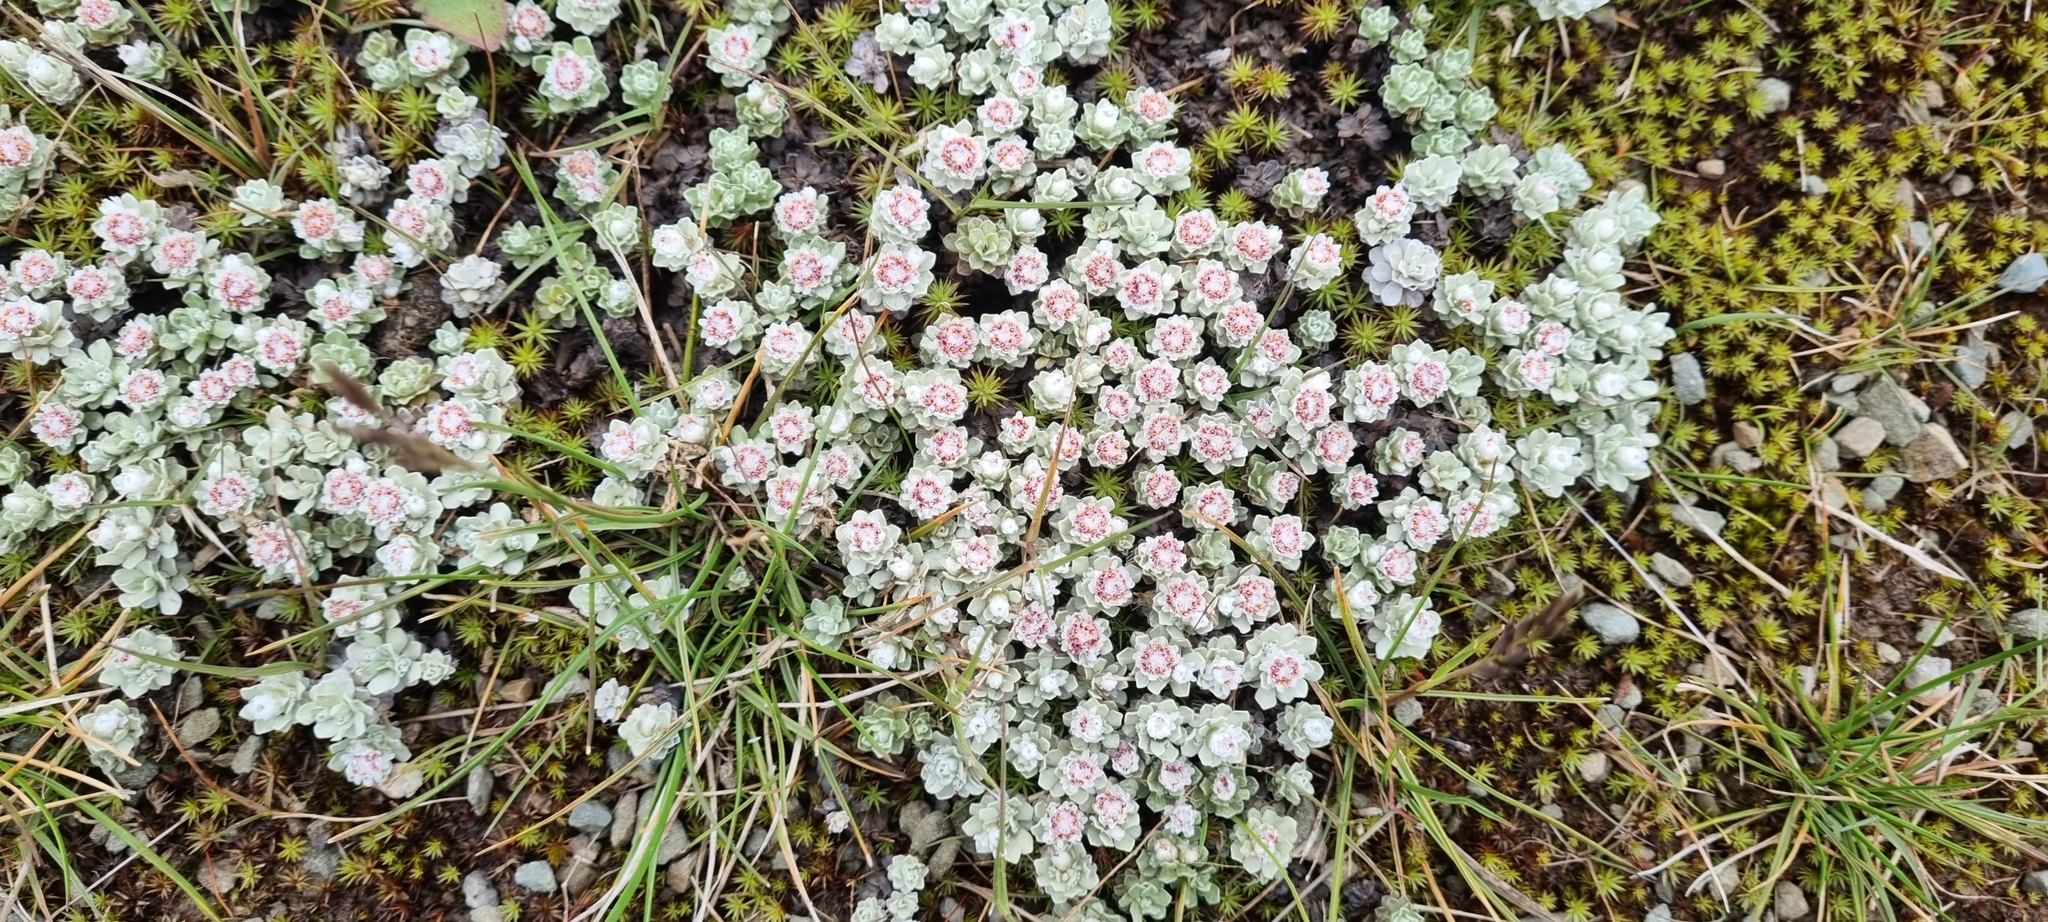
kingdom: Plantae
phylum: Tracheophyta
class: Magnoliopsida
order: Asterales
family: Asteraceae
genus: Ewartia
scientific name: Ewartia nubigena
